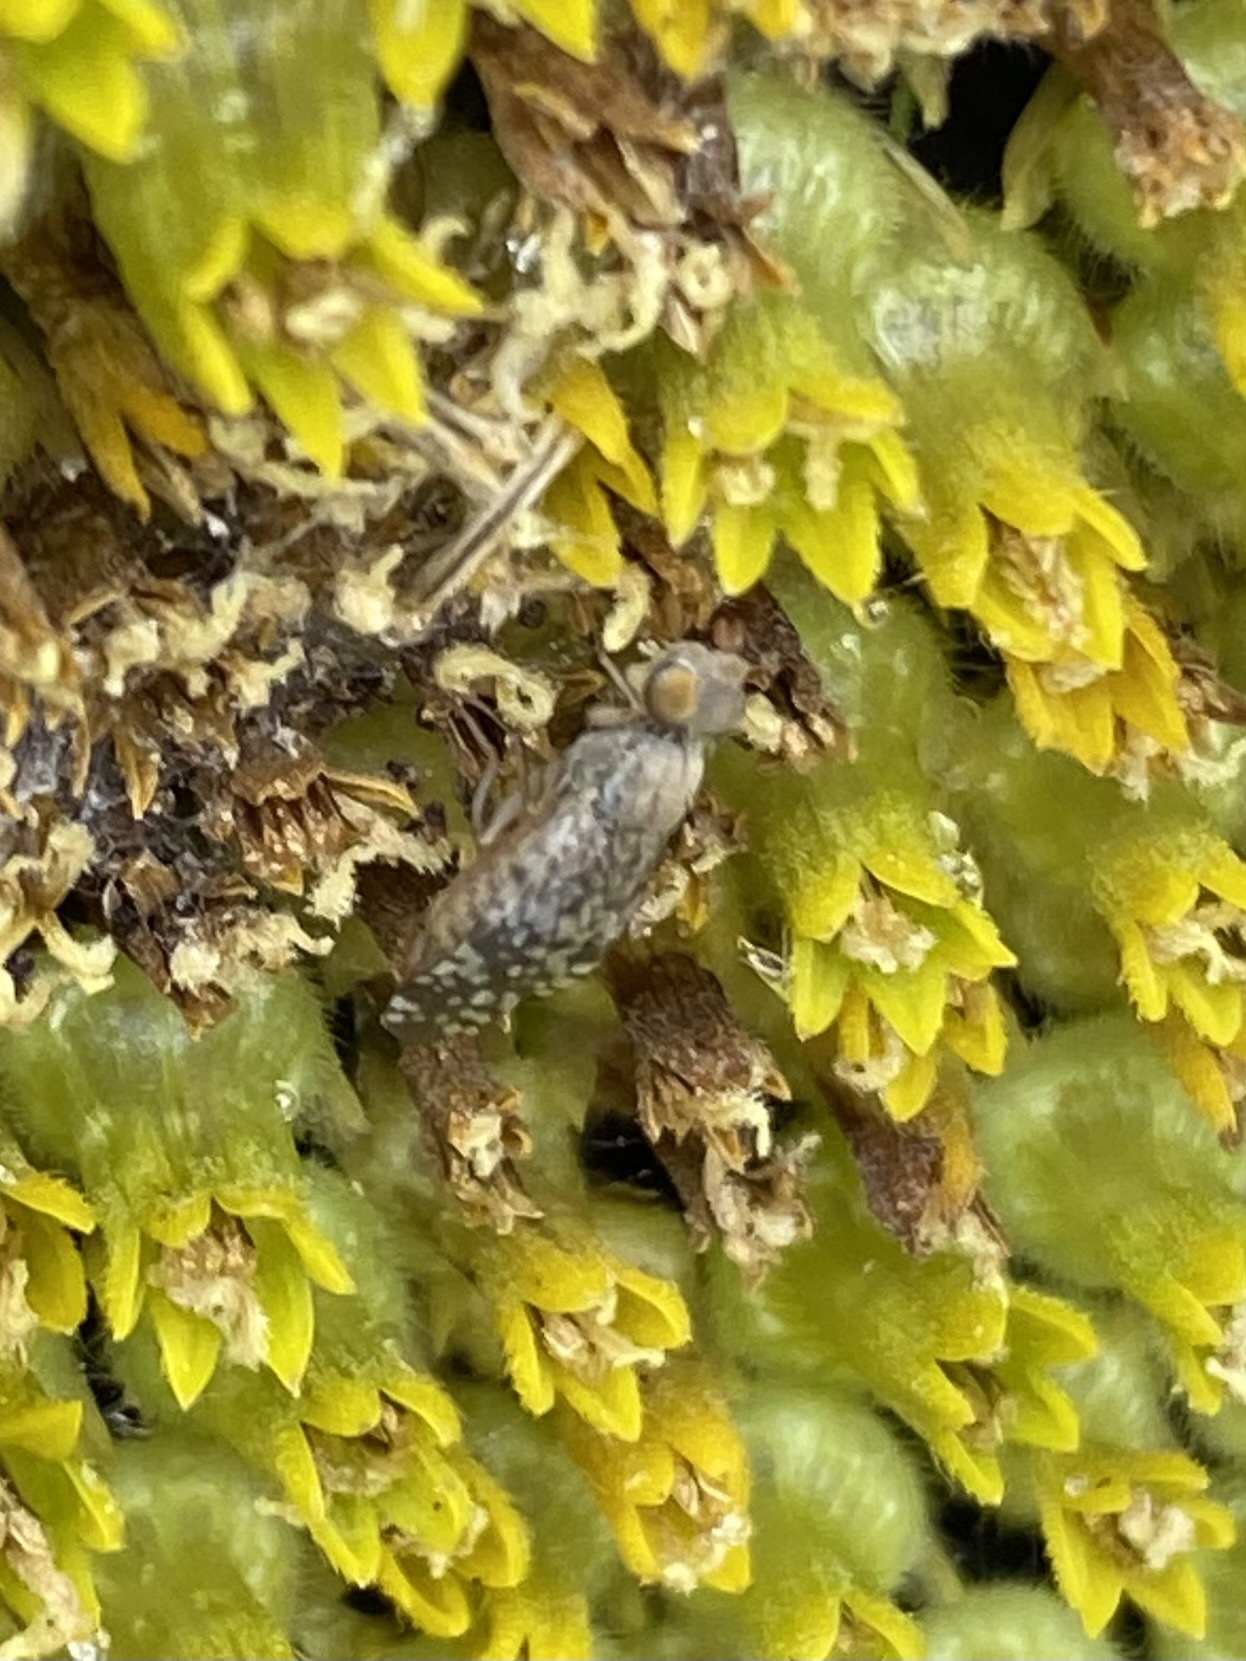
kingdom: Animalia
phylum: Arthropoda
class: Insecta
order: Diptera
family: Tephritidae
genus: Neotephritis
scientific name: Neotephritis finalis
